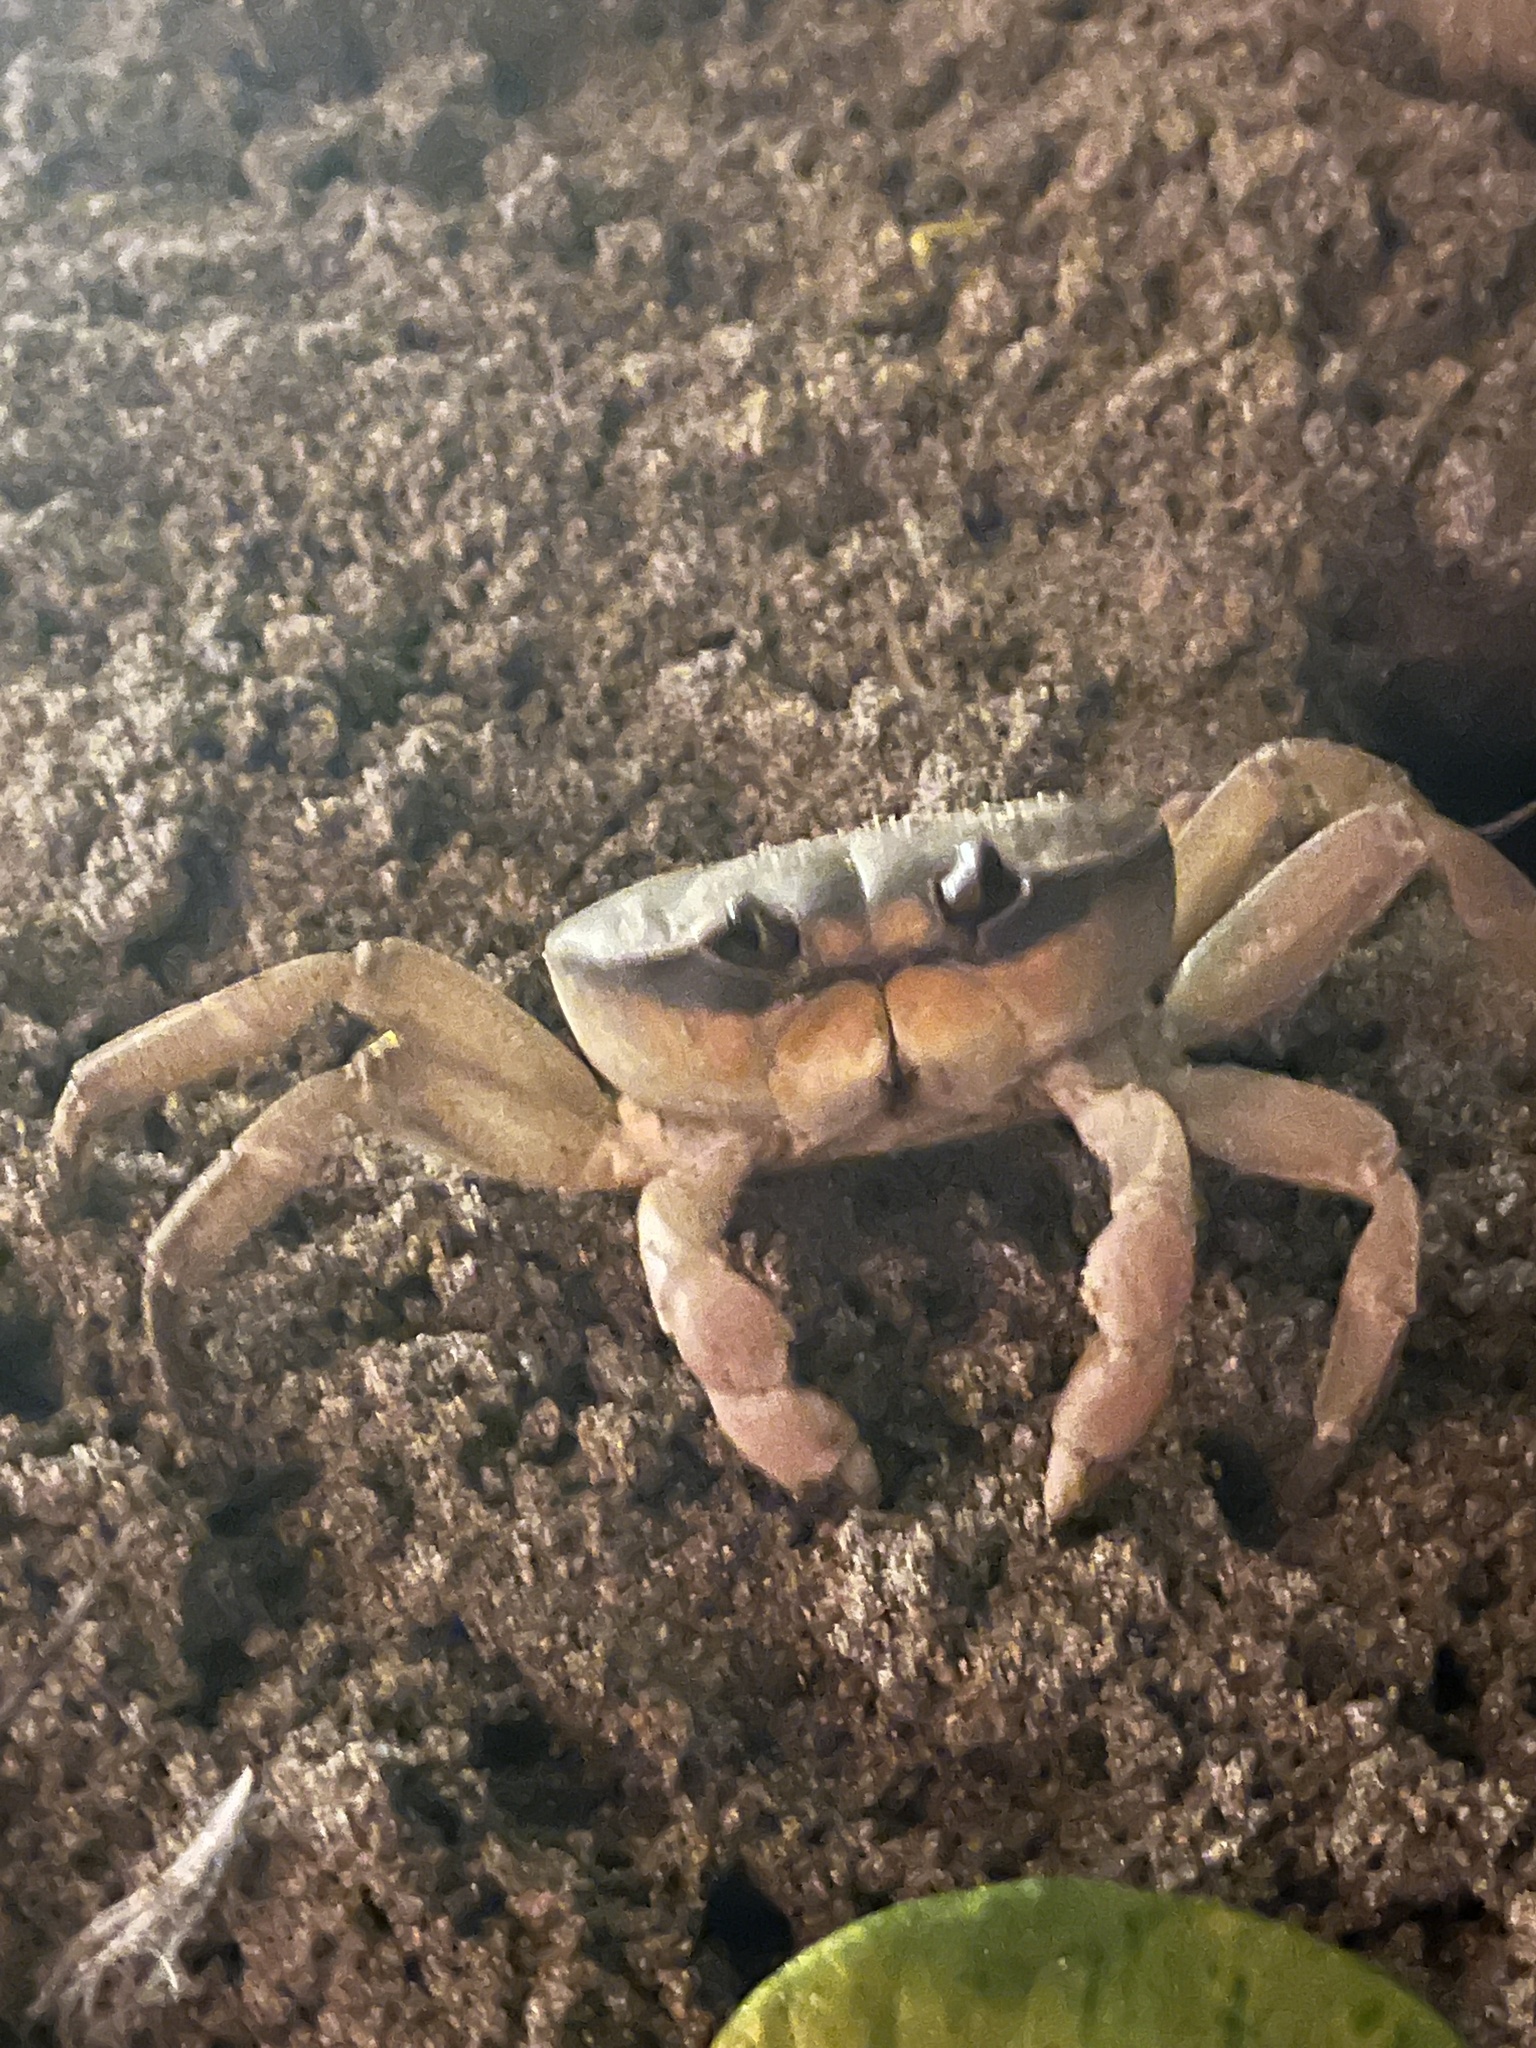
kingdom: Animalia
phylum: Arthropoda
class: Malacostraca
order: Decapoda
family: Gecarcinidae
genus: Gecarcinus
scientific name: Gecarcinus quadratus
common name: Halloween crab
